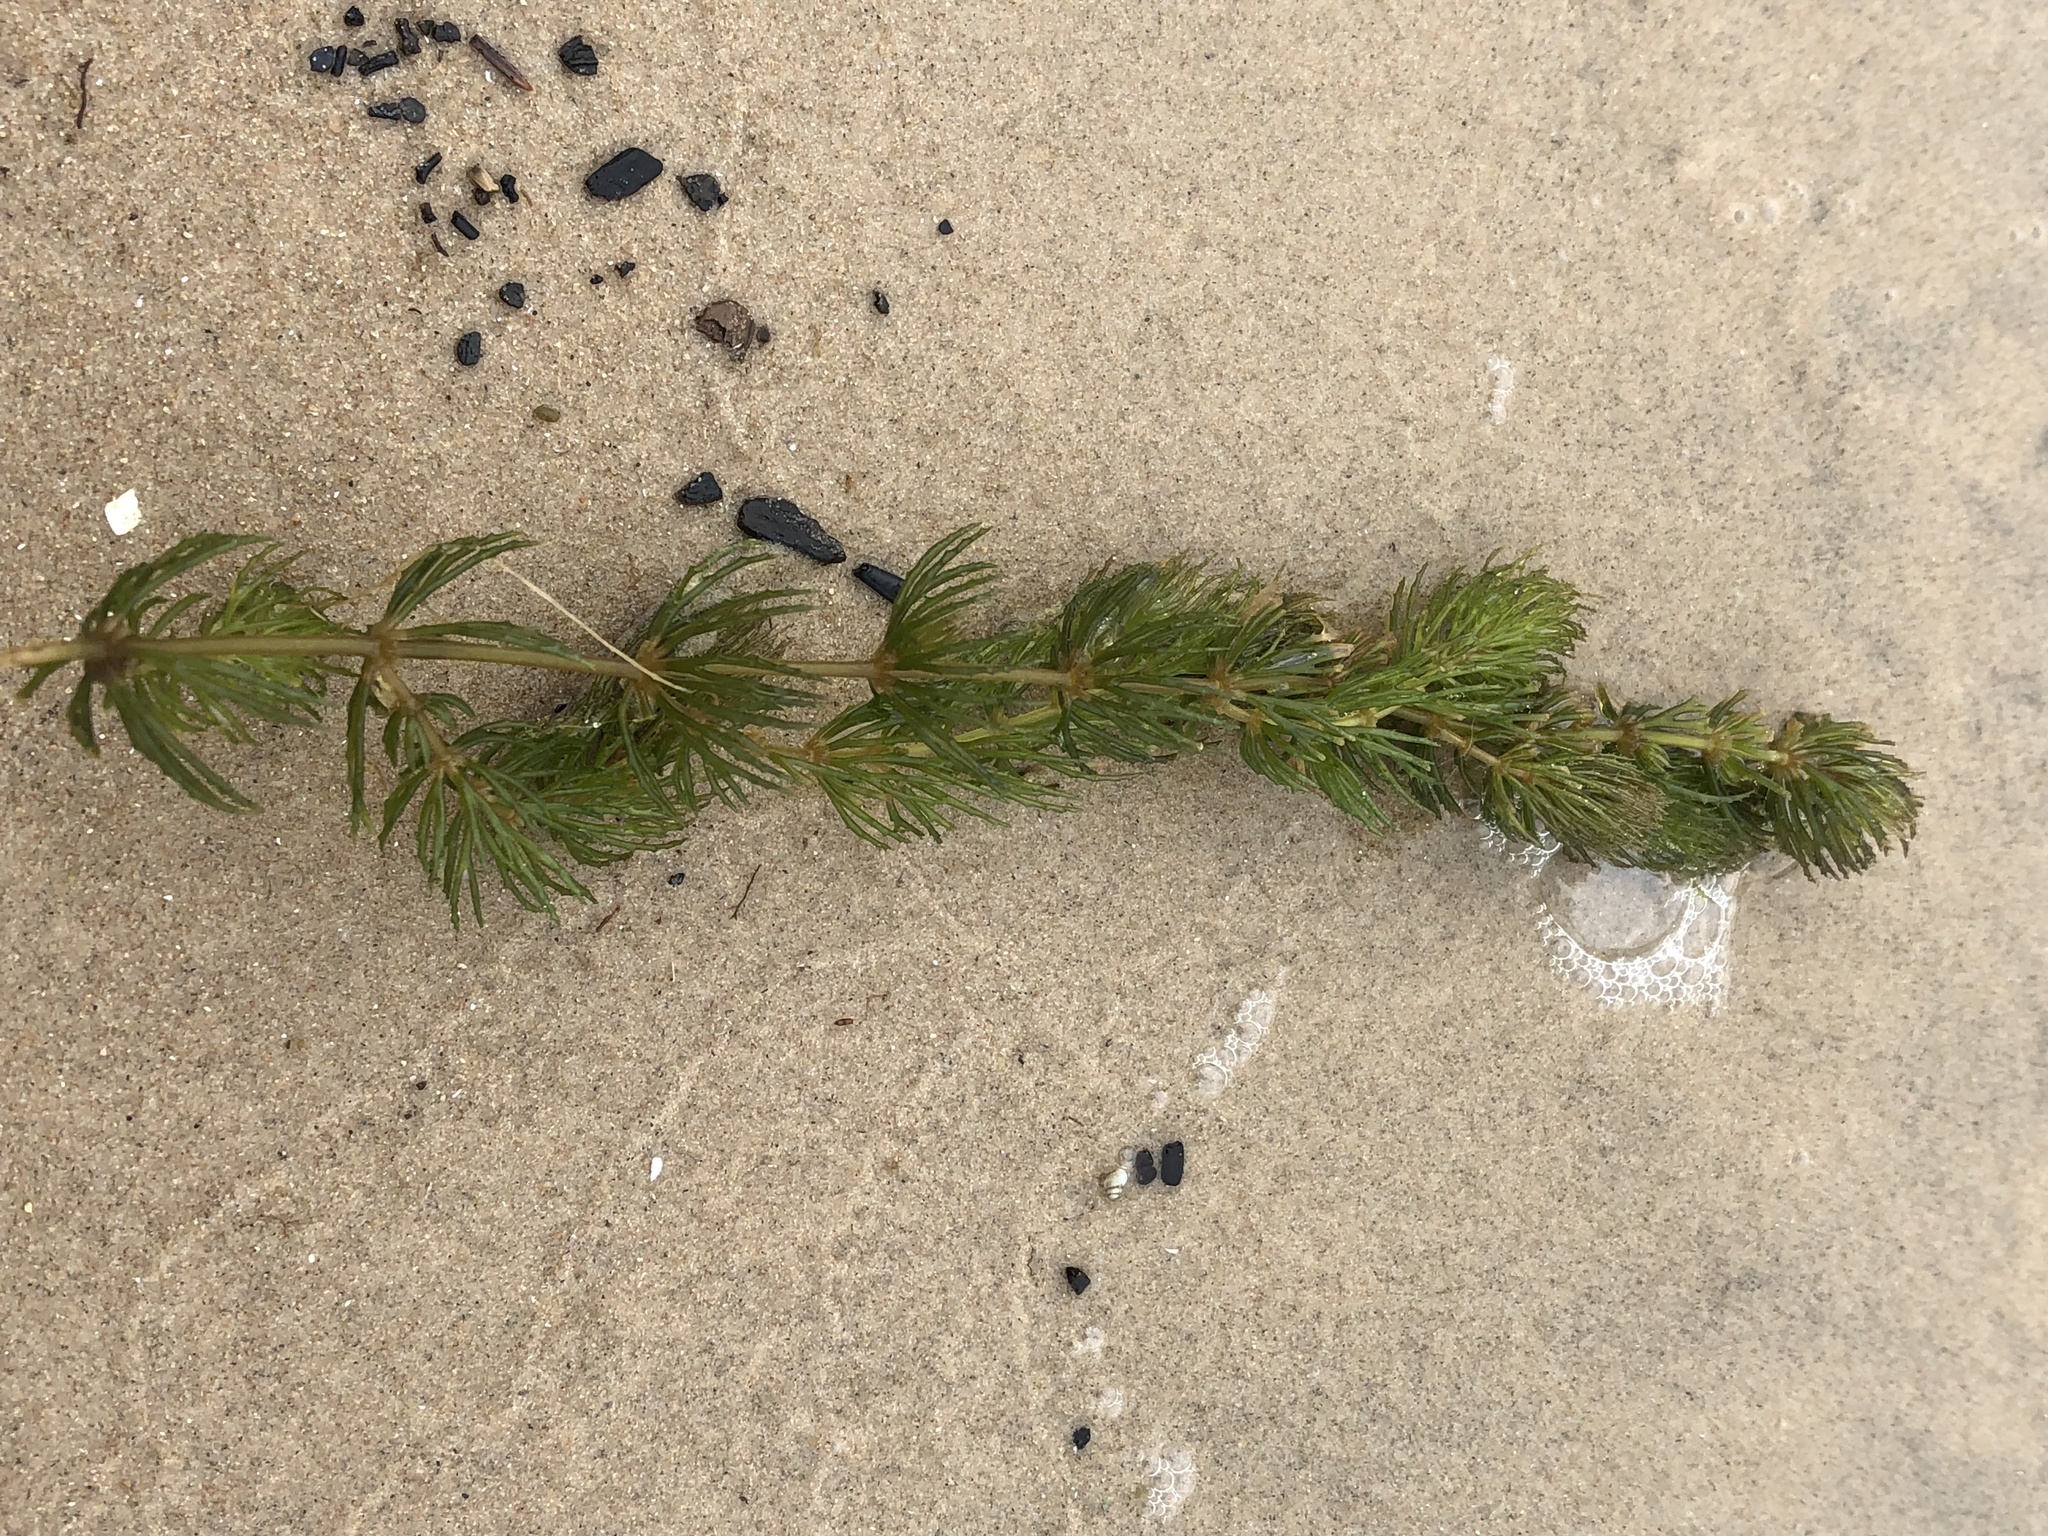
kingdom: Plantae
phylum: Tracheophyta
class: Magnoliopsida
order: Ceratophyllales
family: Ceratophyllaceae
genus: Ceratophyllum
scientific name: Ceratophyllum demersum
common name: Rigid hornwort
